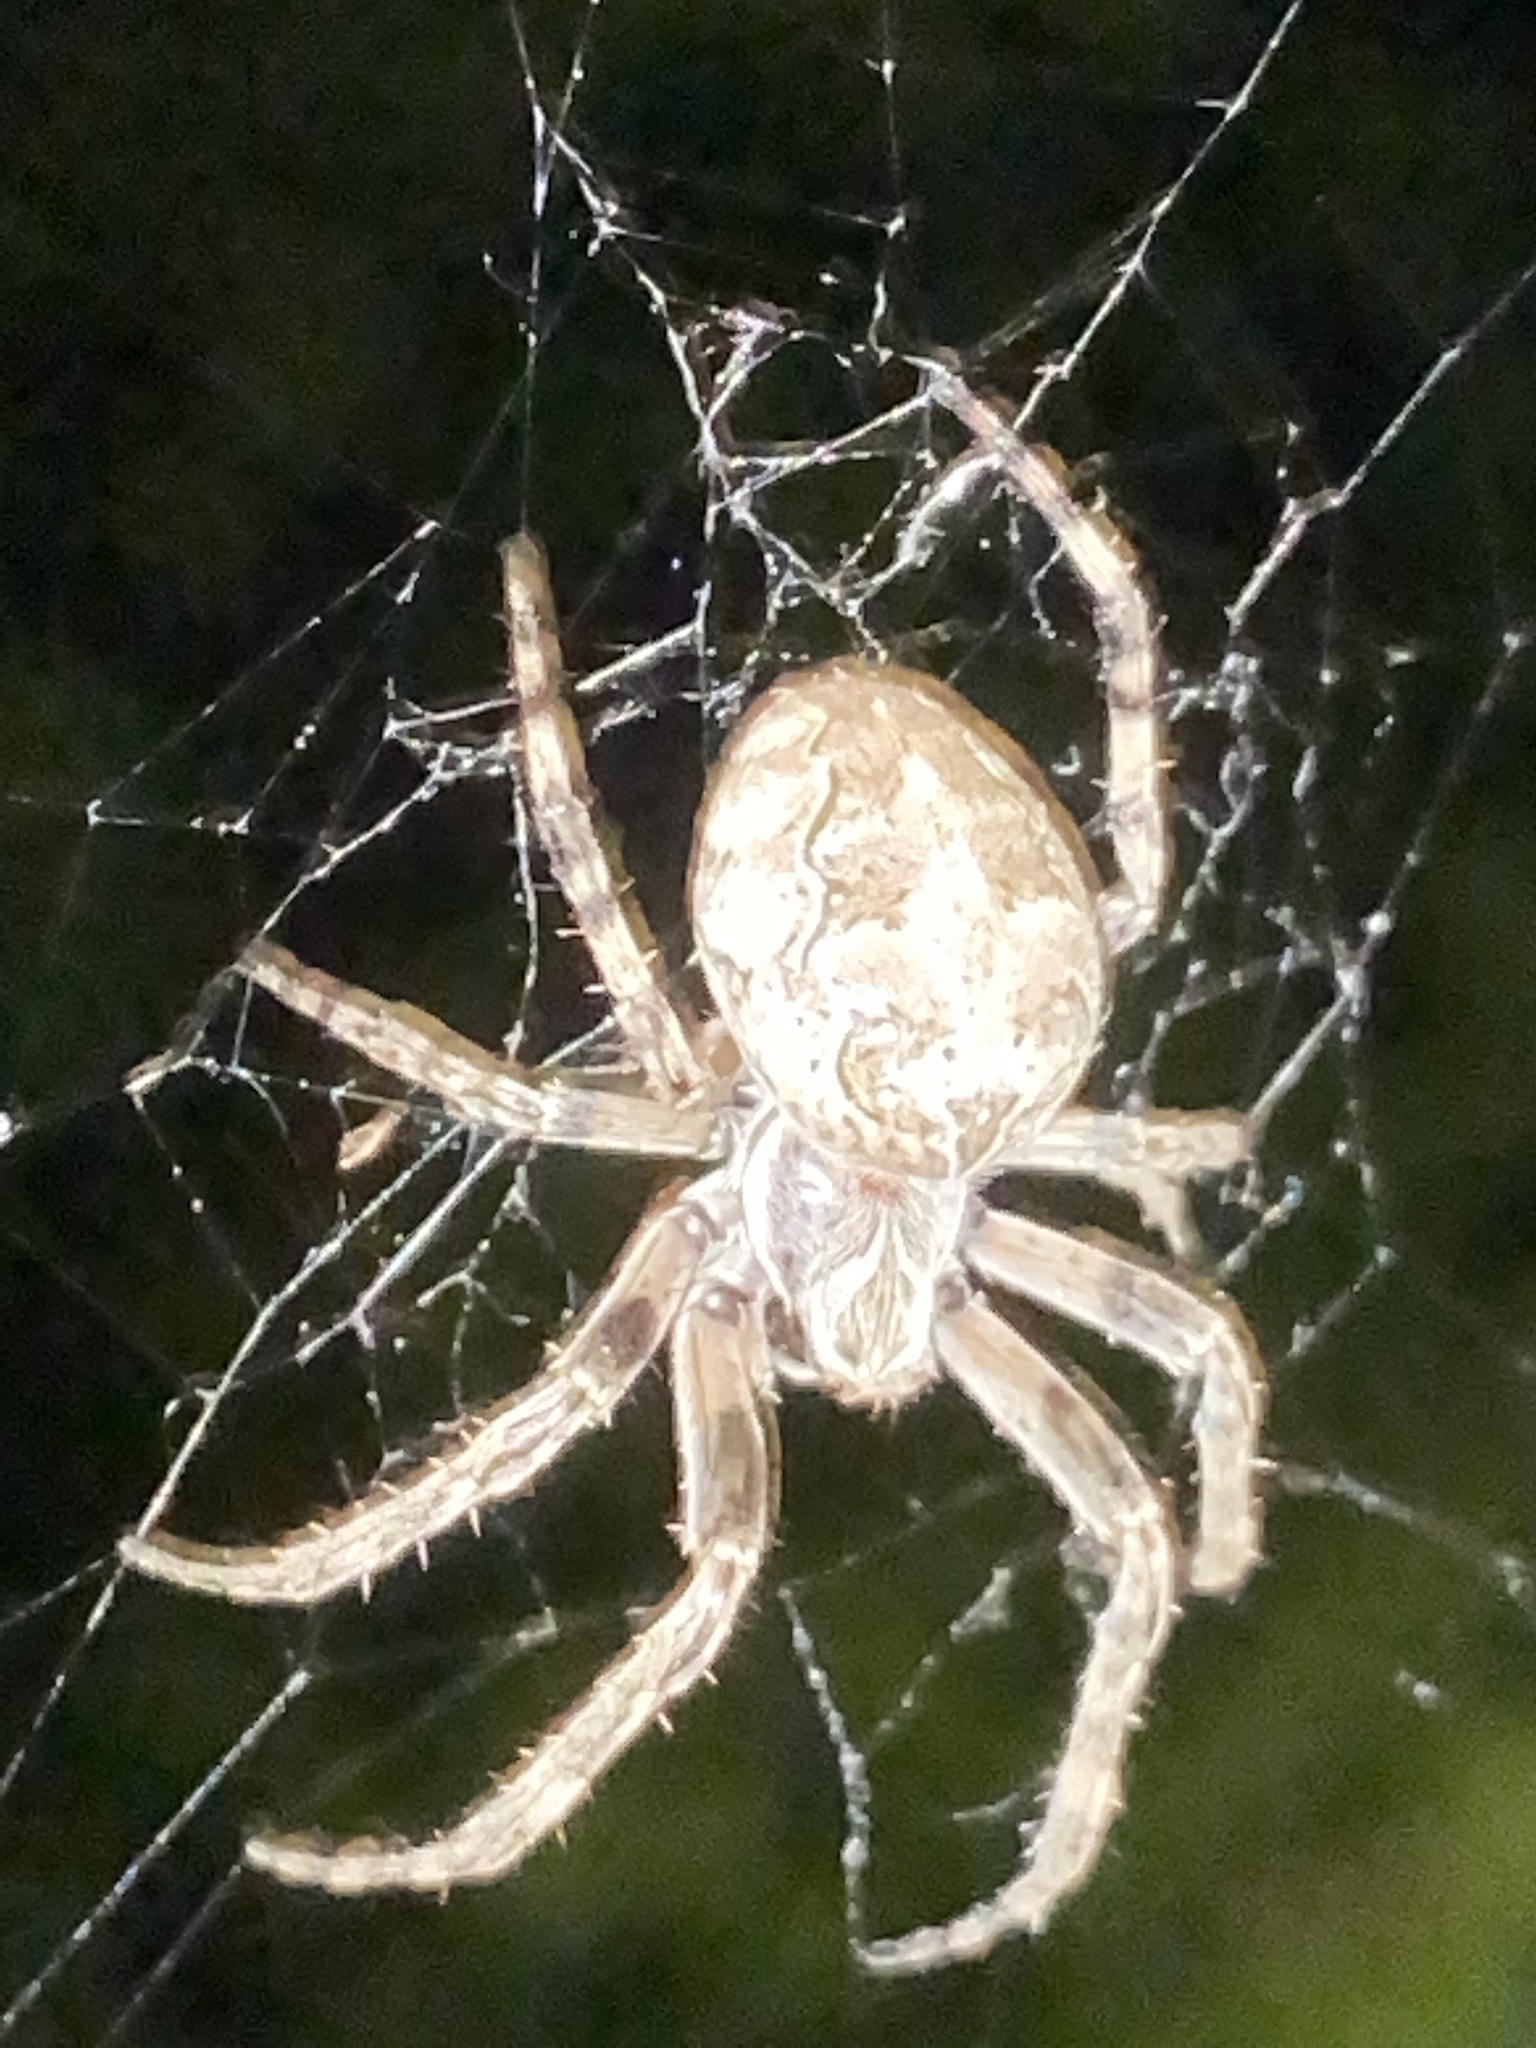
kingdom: Animalia
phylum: Arthropoda
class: Arachnida
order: Araneae
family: Araneidae
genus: Larinioides
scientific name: Larinioides sclopetarius
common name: Bridge orbweaver
